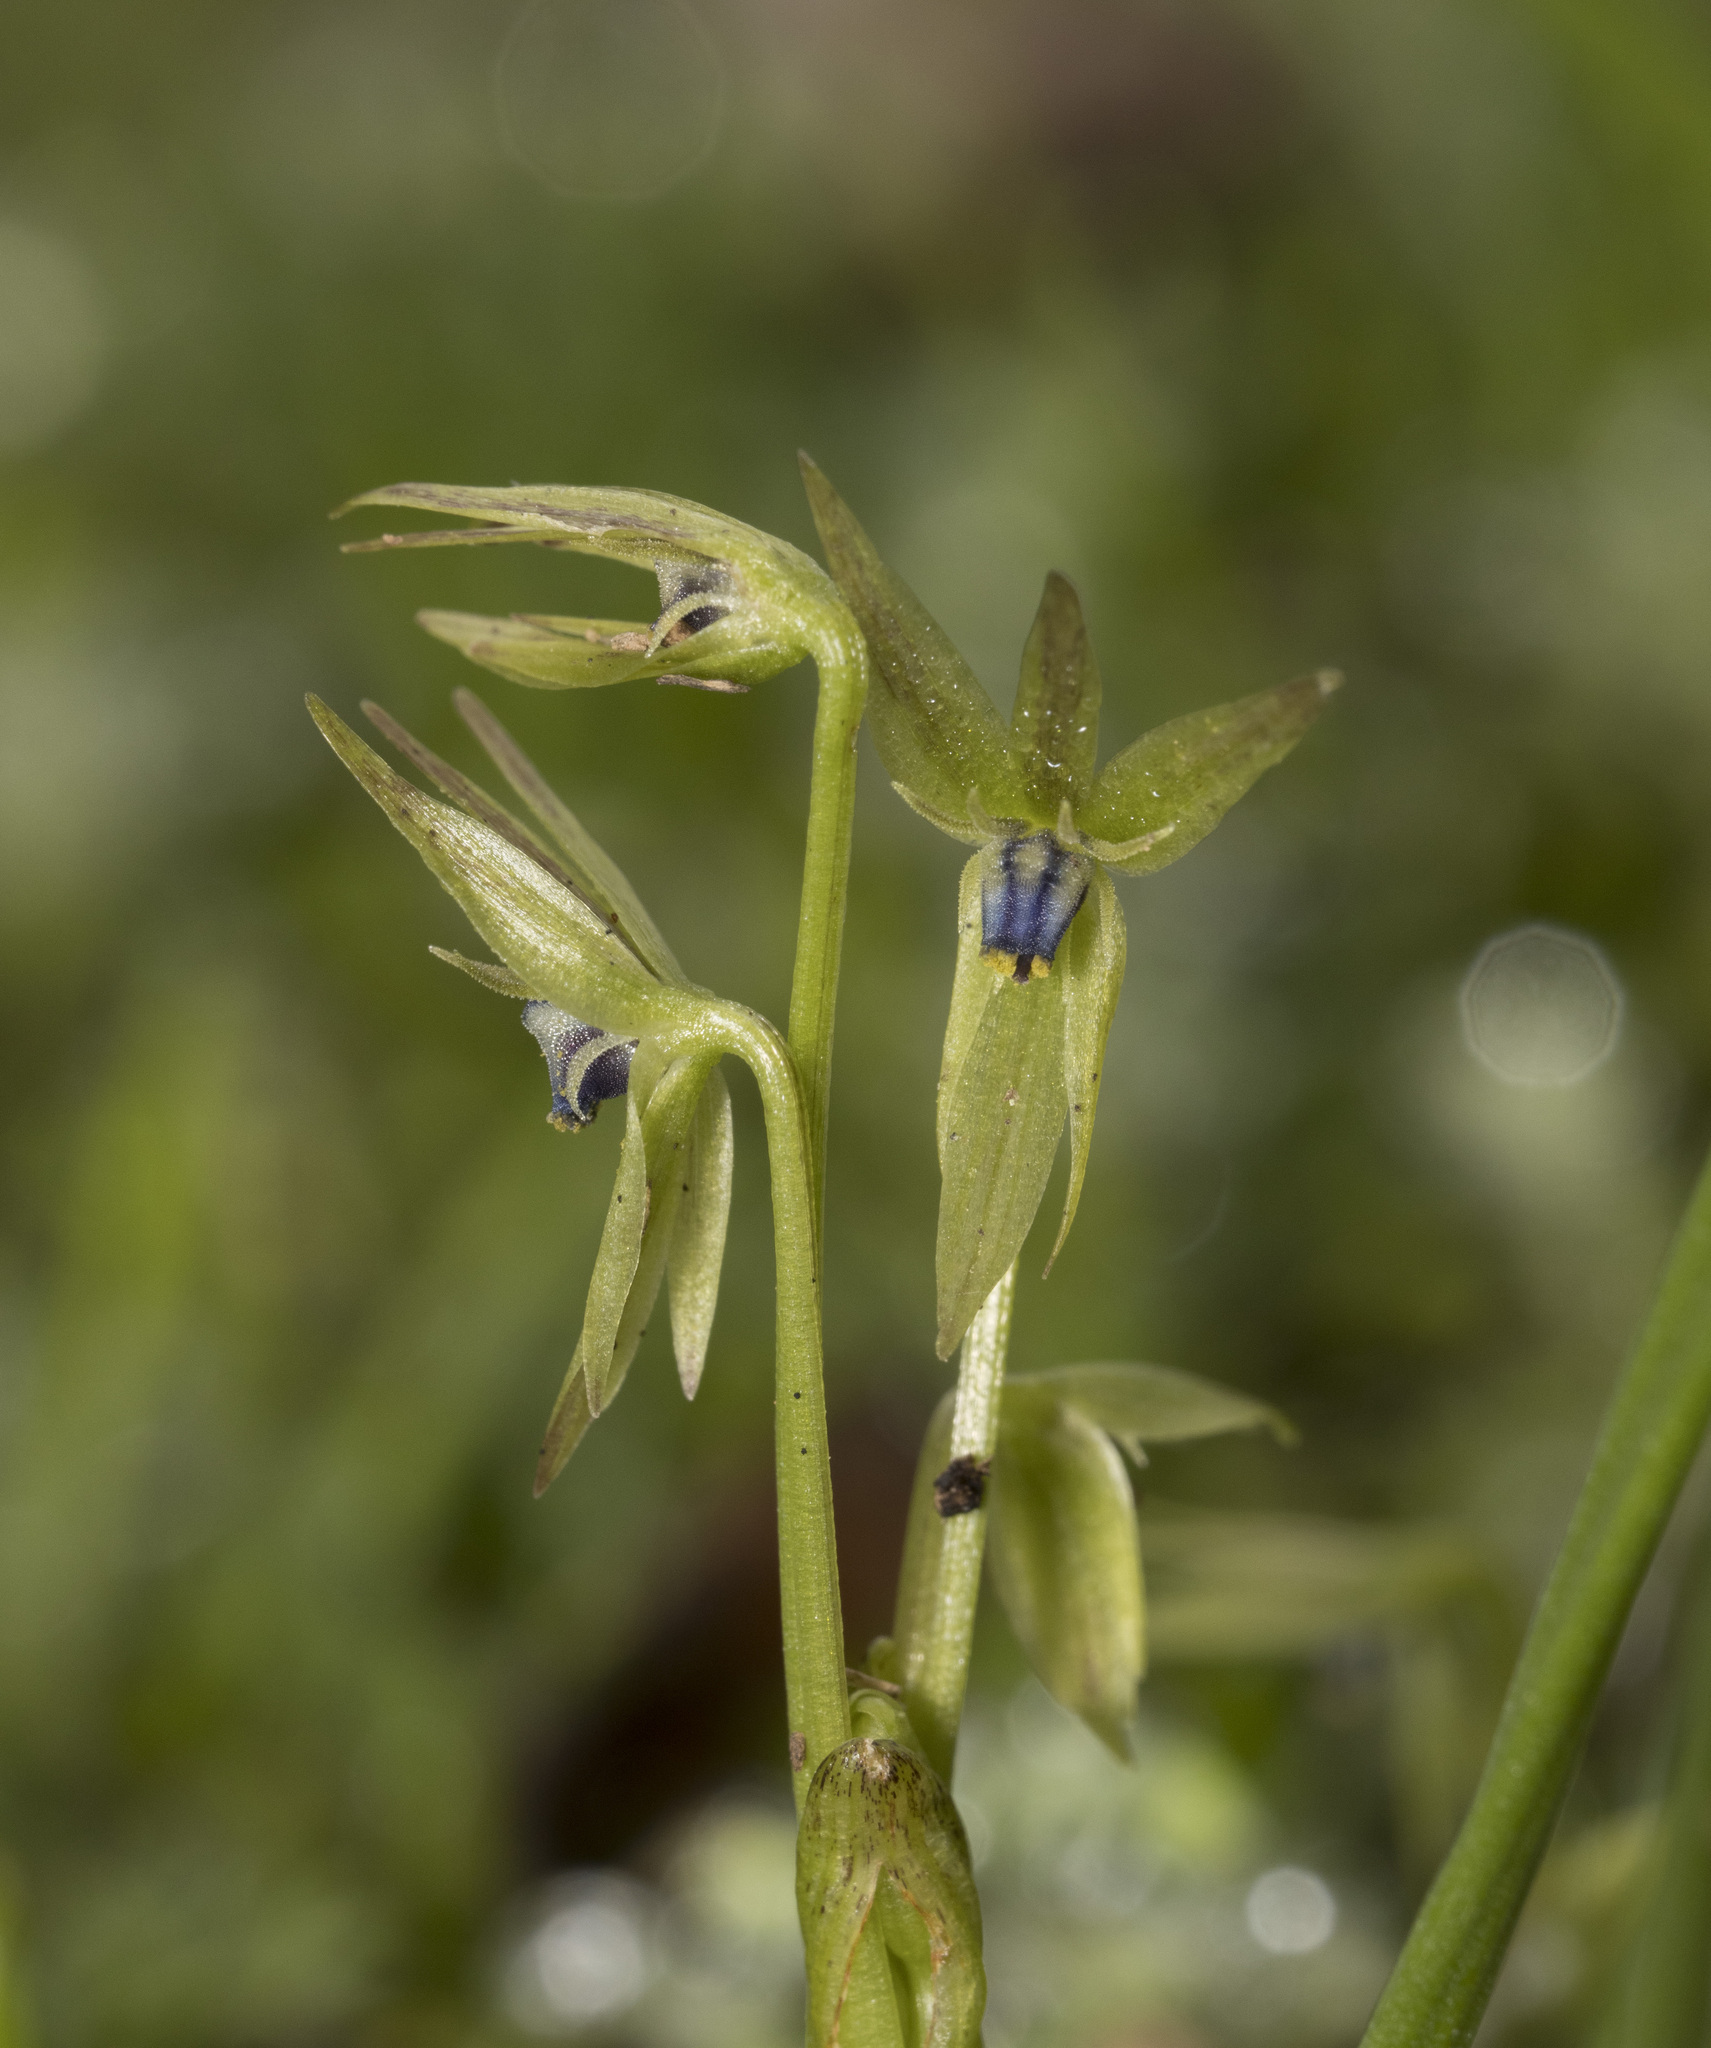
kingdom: Plantae
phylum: Tracheophyta
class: Liliopsida
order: Asparagales
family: Amaryllidaceae
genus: Miersia
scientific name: Miersia myodes
